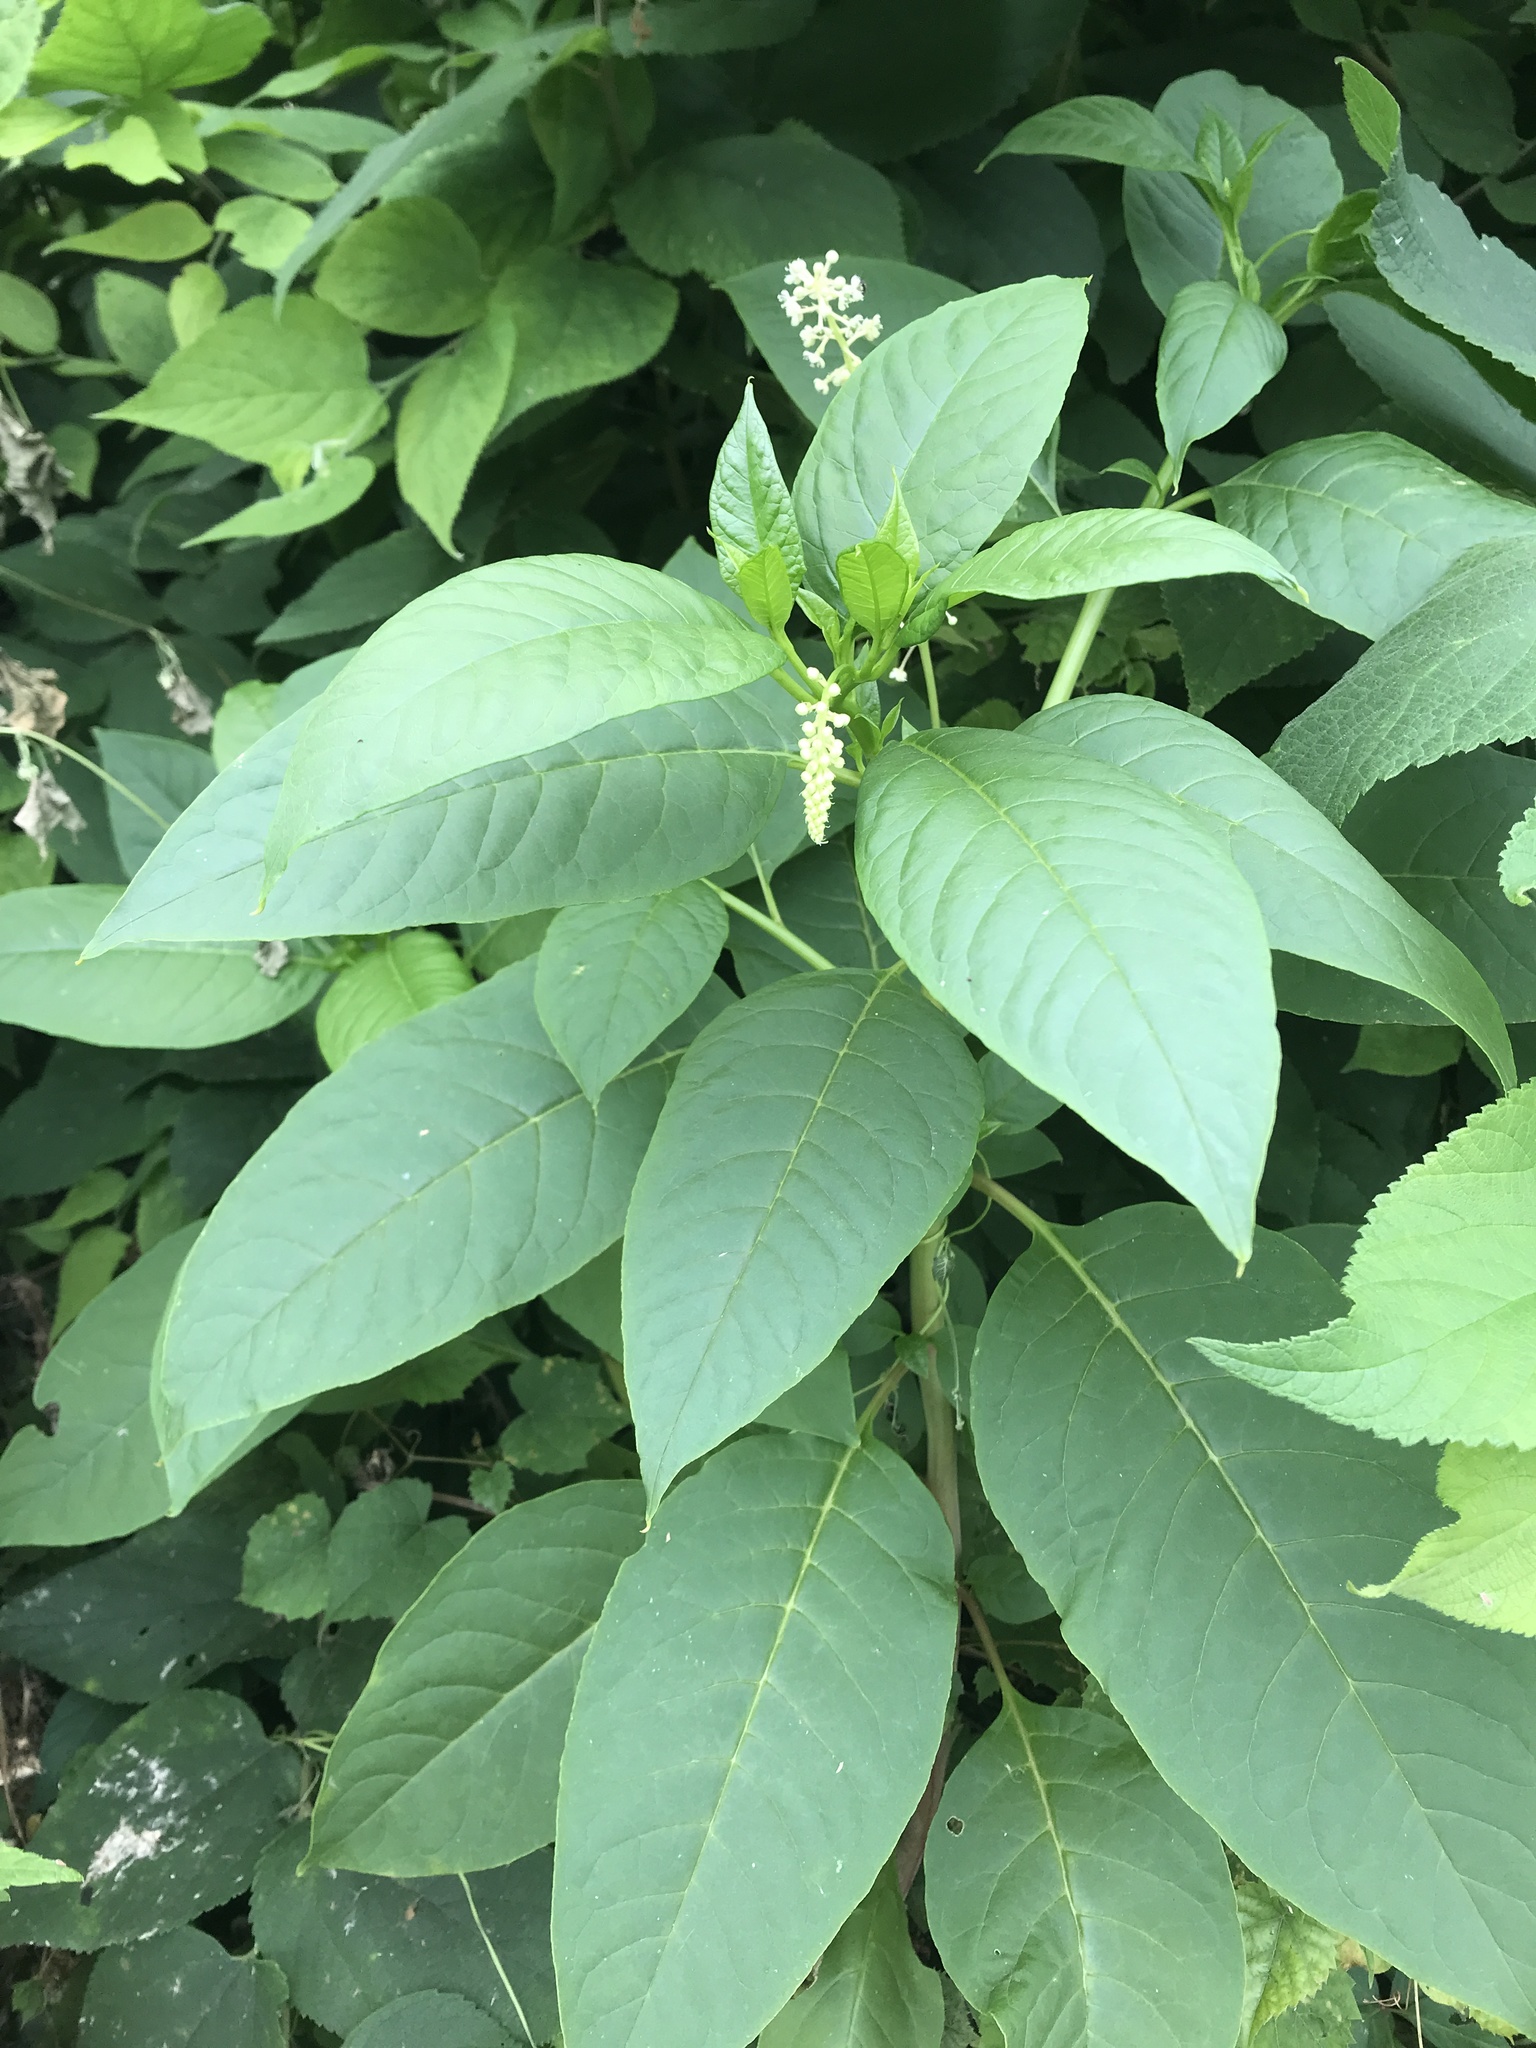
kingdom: Plantae
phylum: Tracheophyta
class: Magnoliopsida
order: Caryophyllales
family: Phytolaccaceae
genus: Phytolacca
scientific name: Phytolacca americana
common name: American pokeweed
